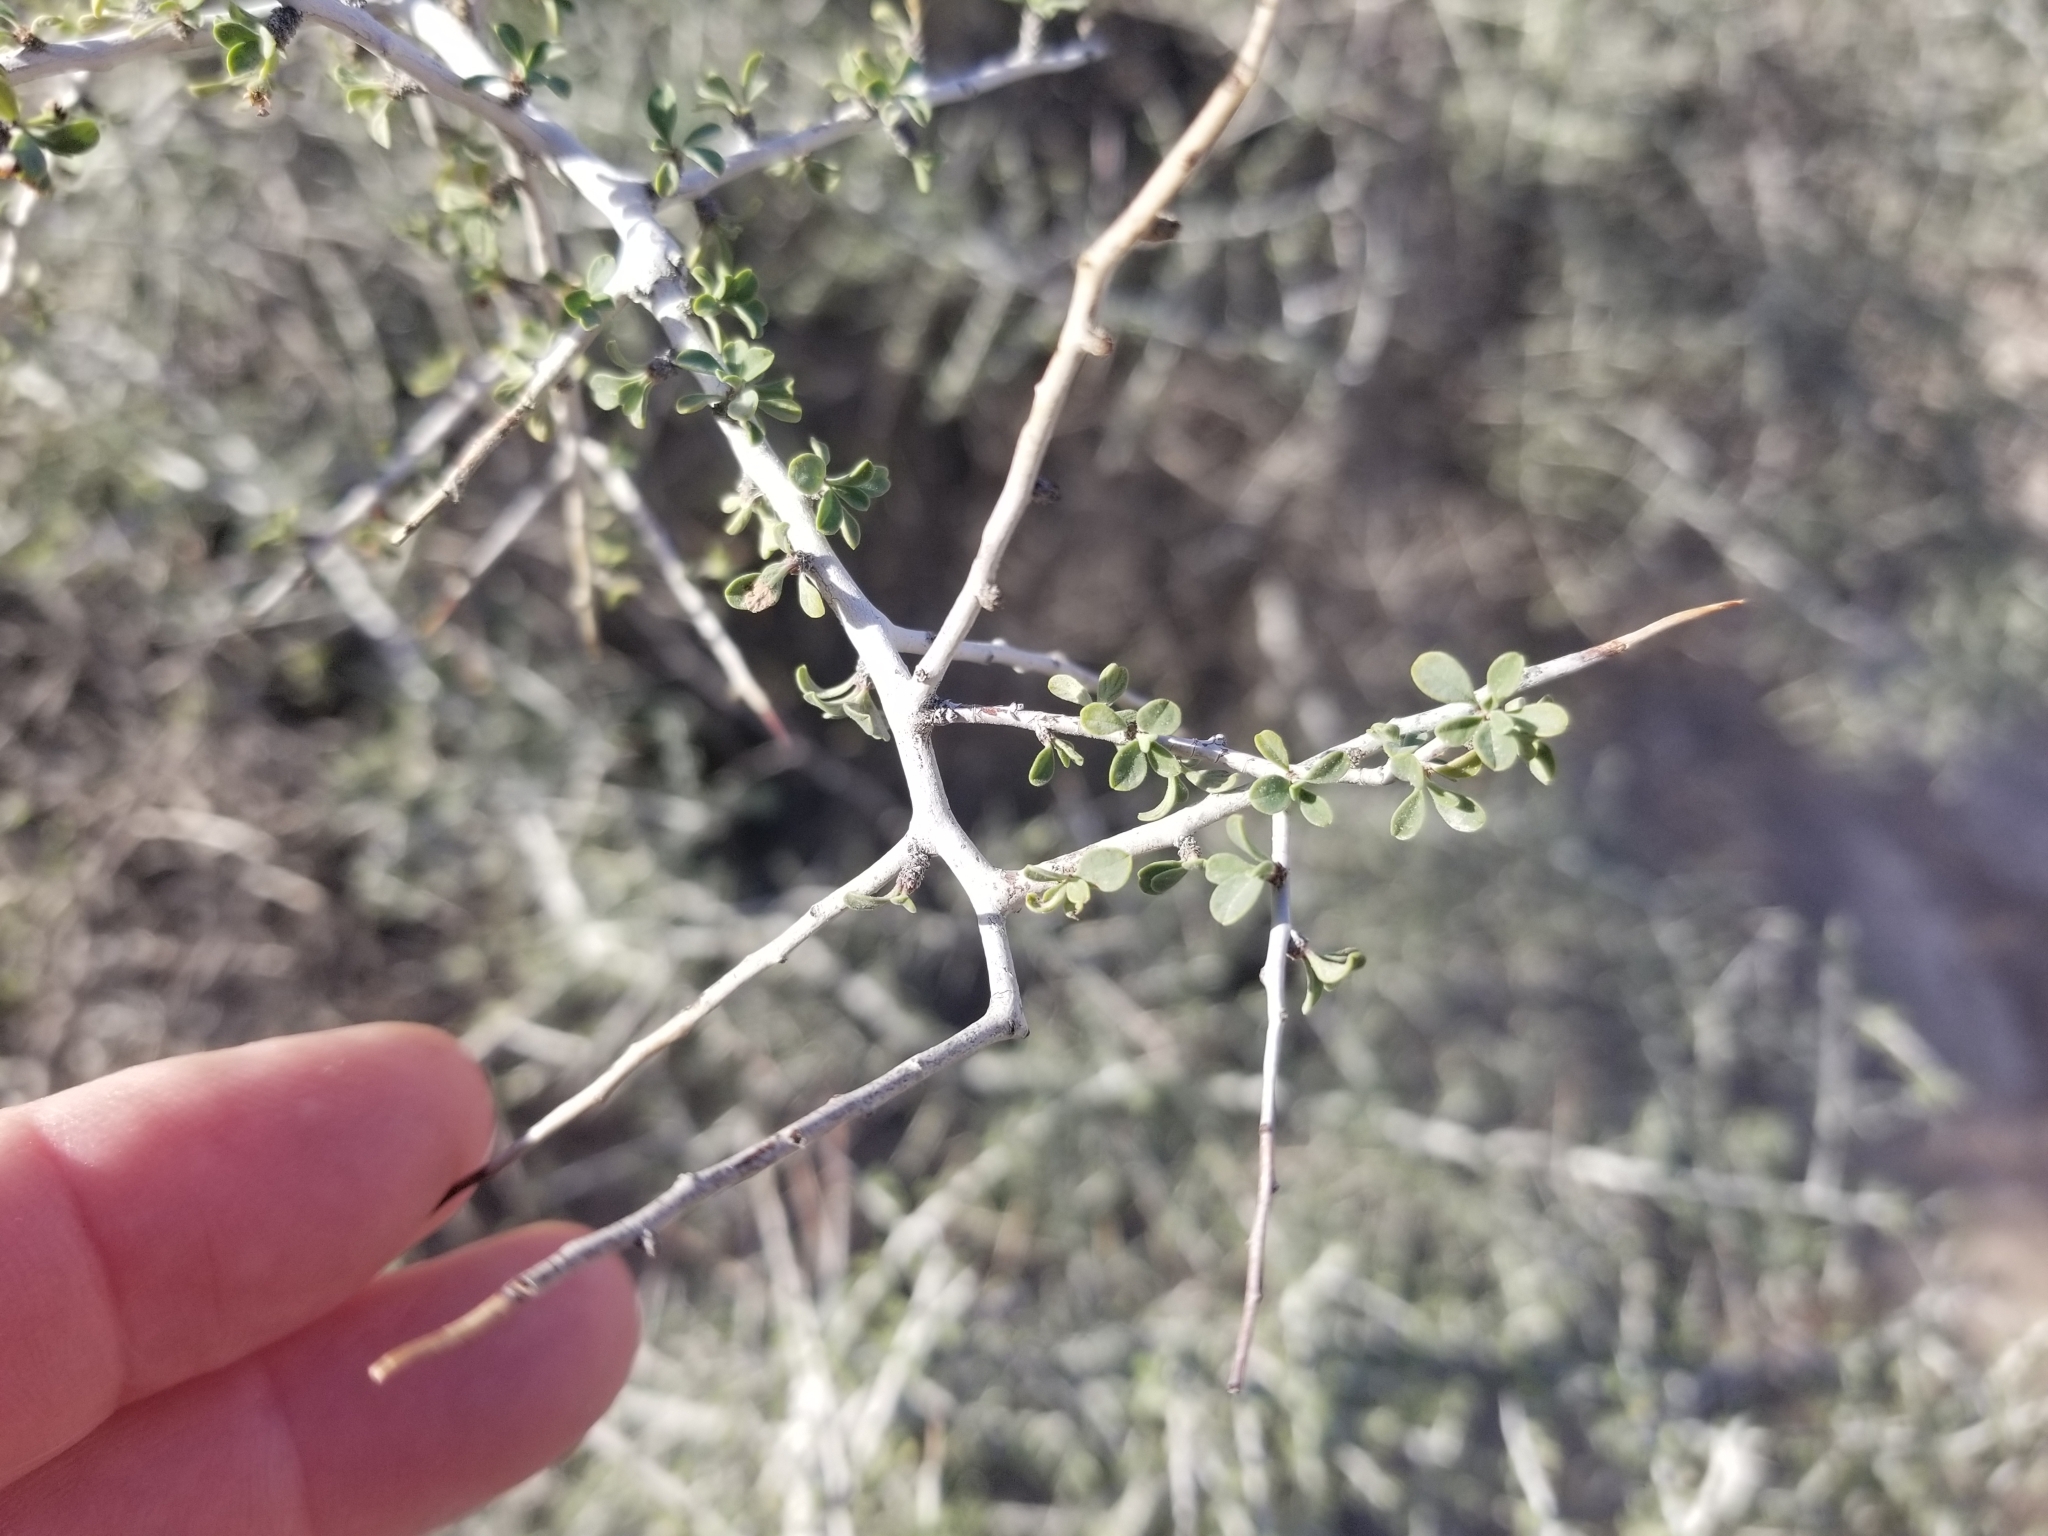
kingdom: Plantae
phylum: Tracheophyta
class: Magnoliopsida
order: Rosales
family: Rhamnaceae
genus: Condalia
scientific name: Condalia globosa
